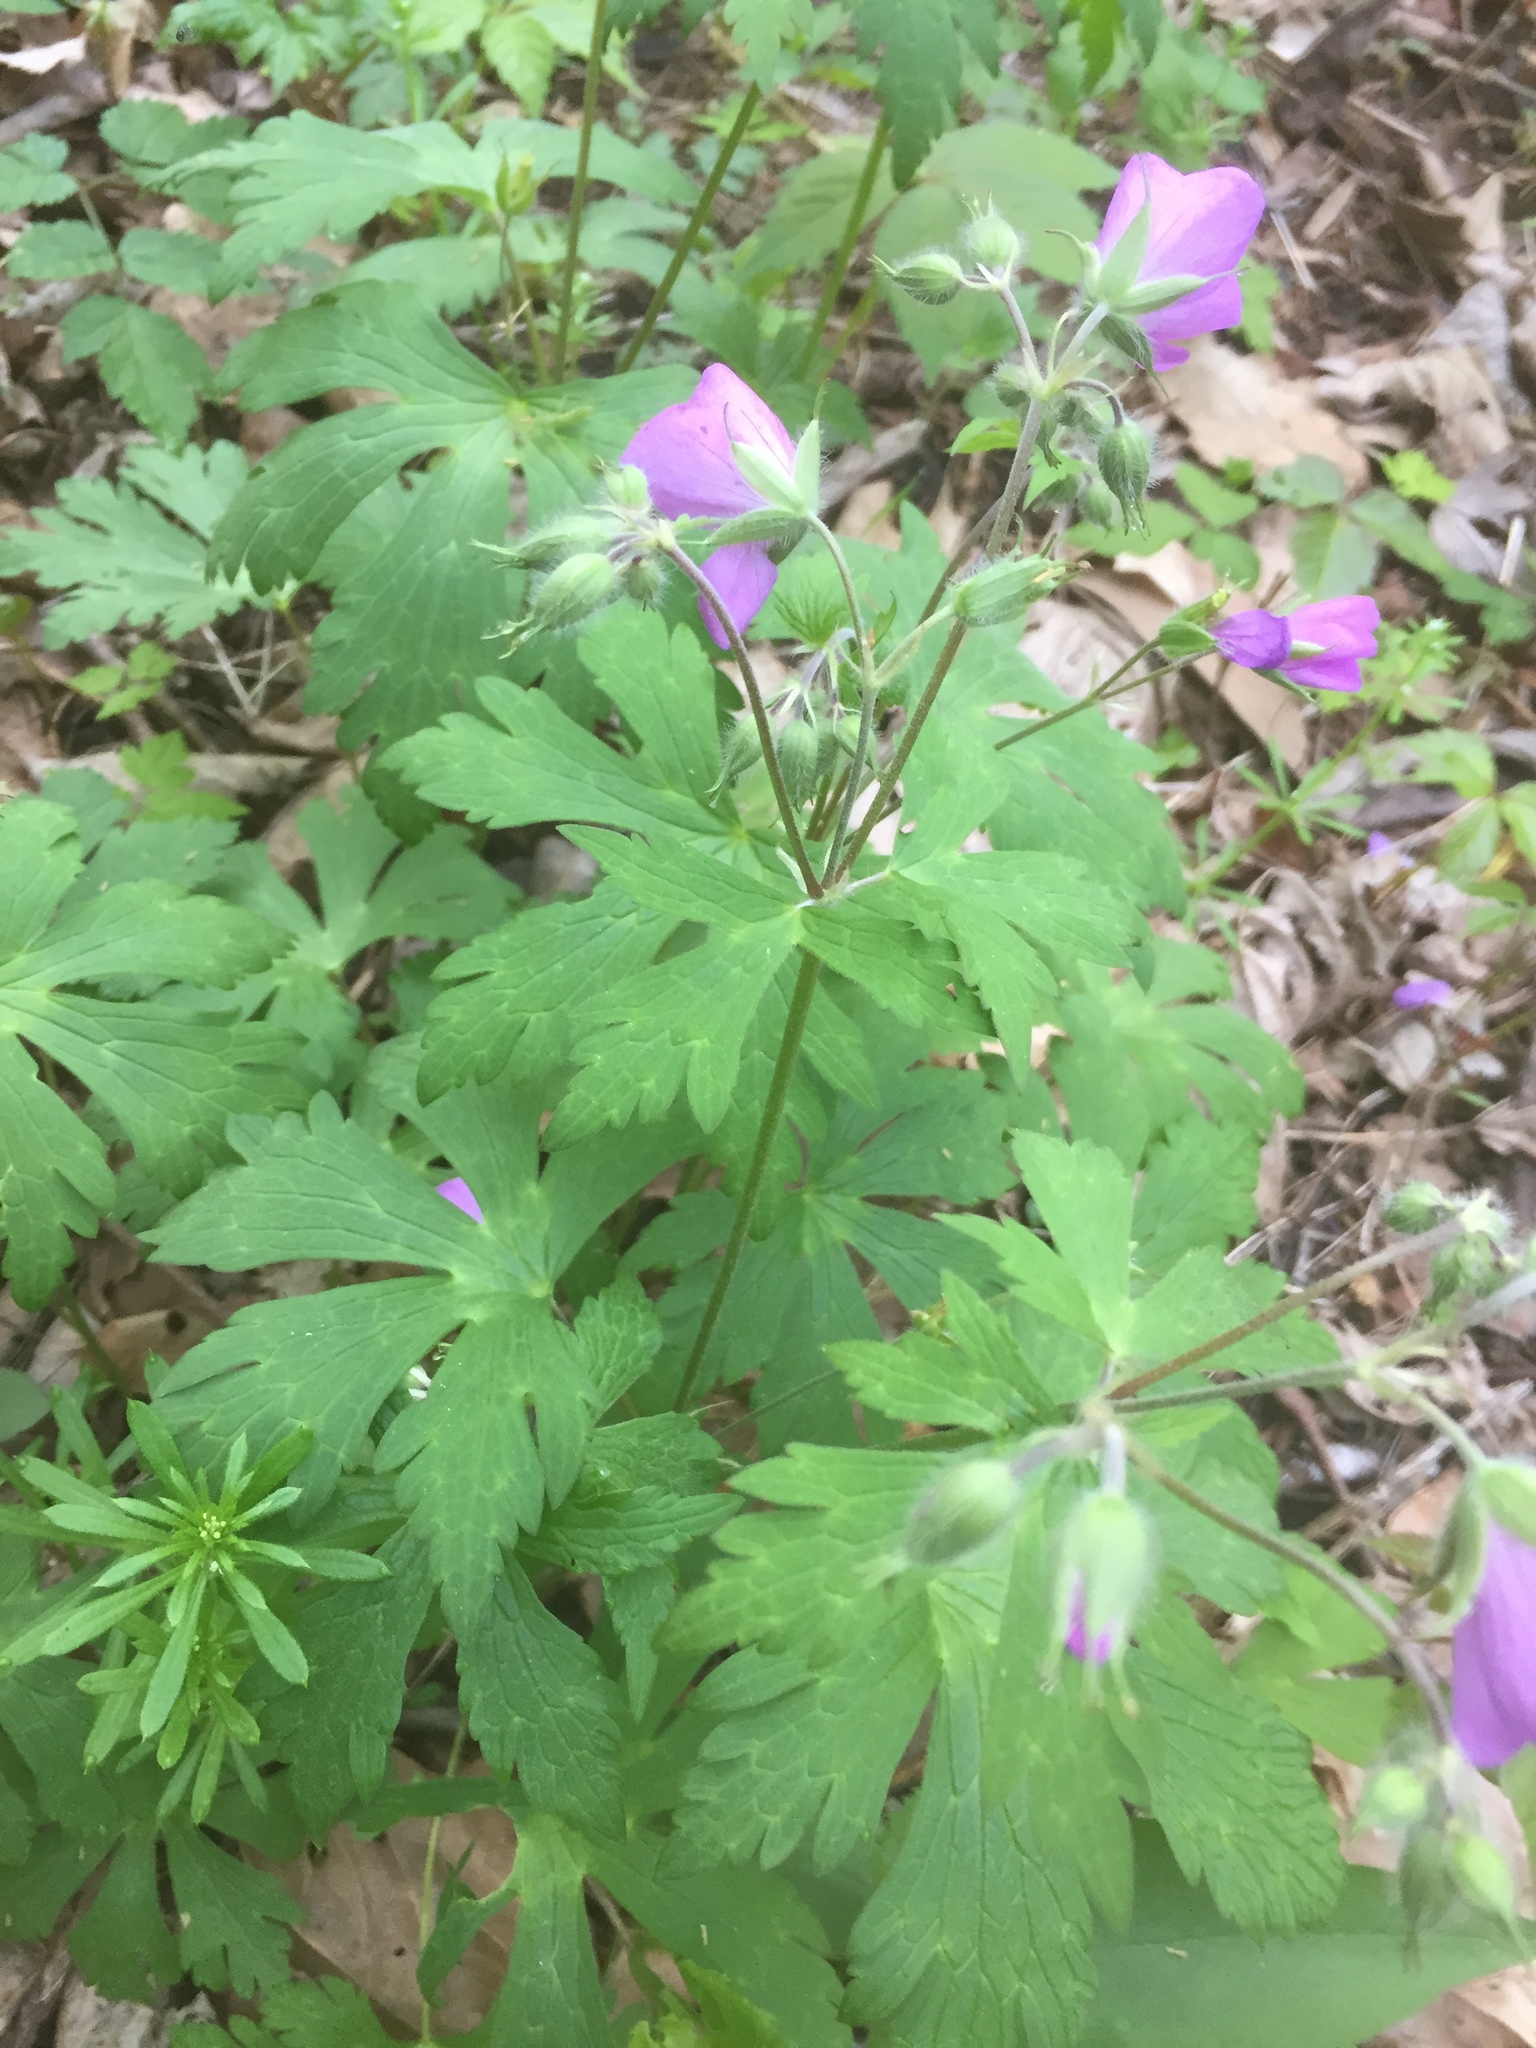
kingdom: Plantae
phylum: Tracheophyta
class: Magnoliopsida
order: Geraniales
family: Geraniaceae
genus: Geranium
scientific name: Geranium maculatum
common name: Spotted geranium
